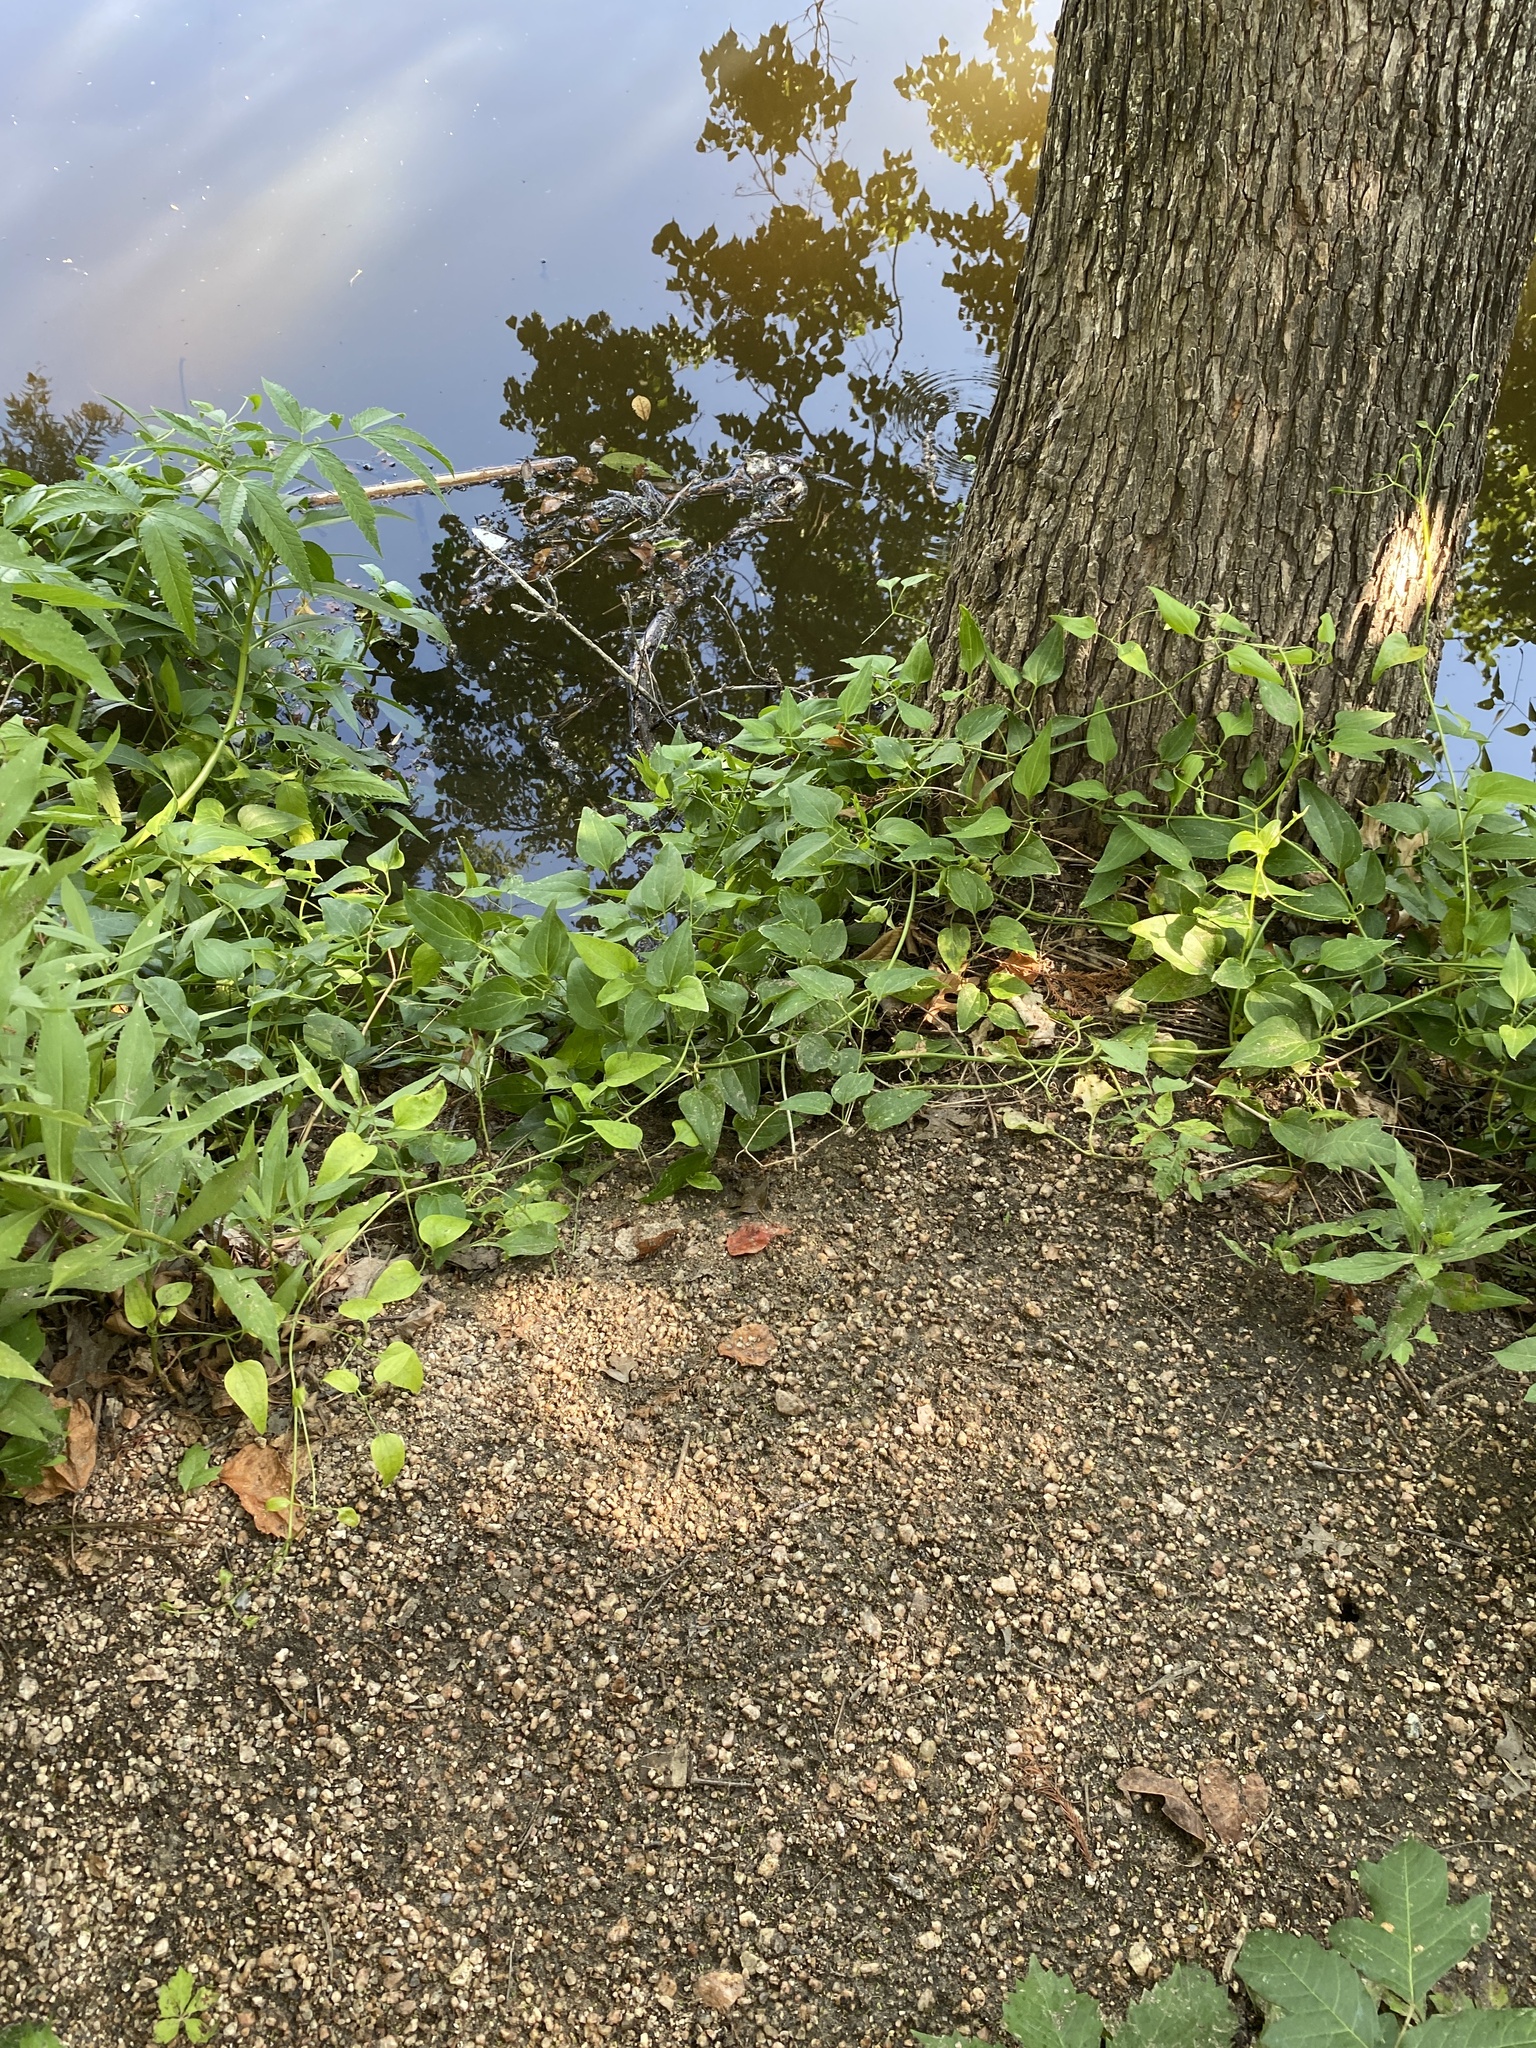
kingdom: Plantae
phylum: Tracheophyta
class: Magnoliopsida
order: Ranunculales
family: Ranunculaceae
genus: Clematis
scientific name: Clematis terniflora
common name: Sweet autumn clematis
